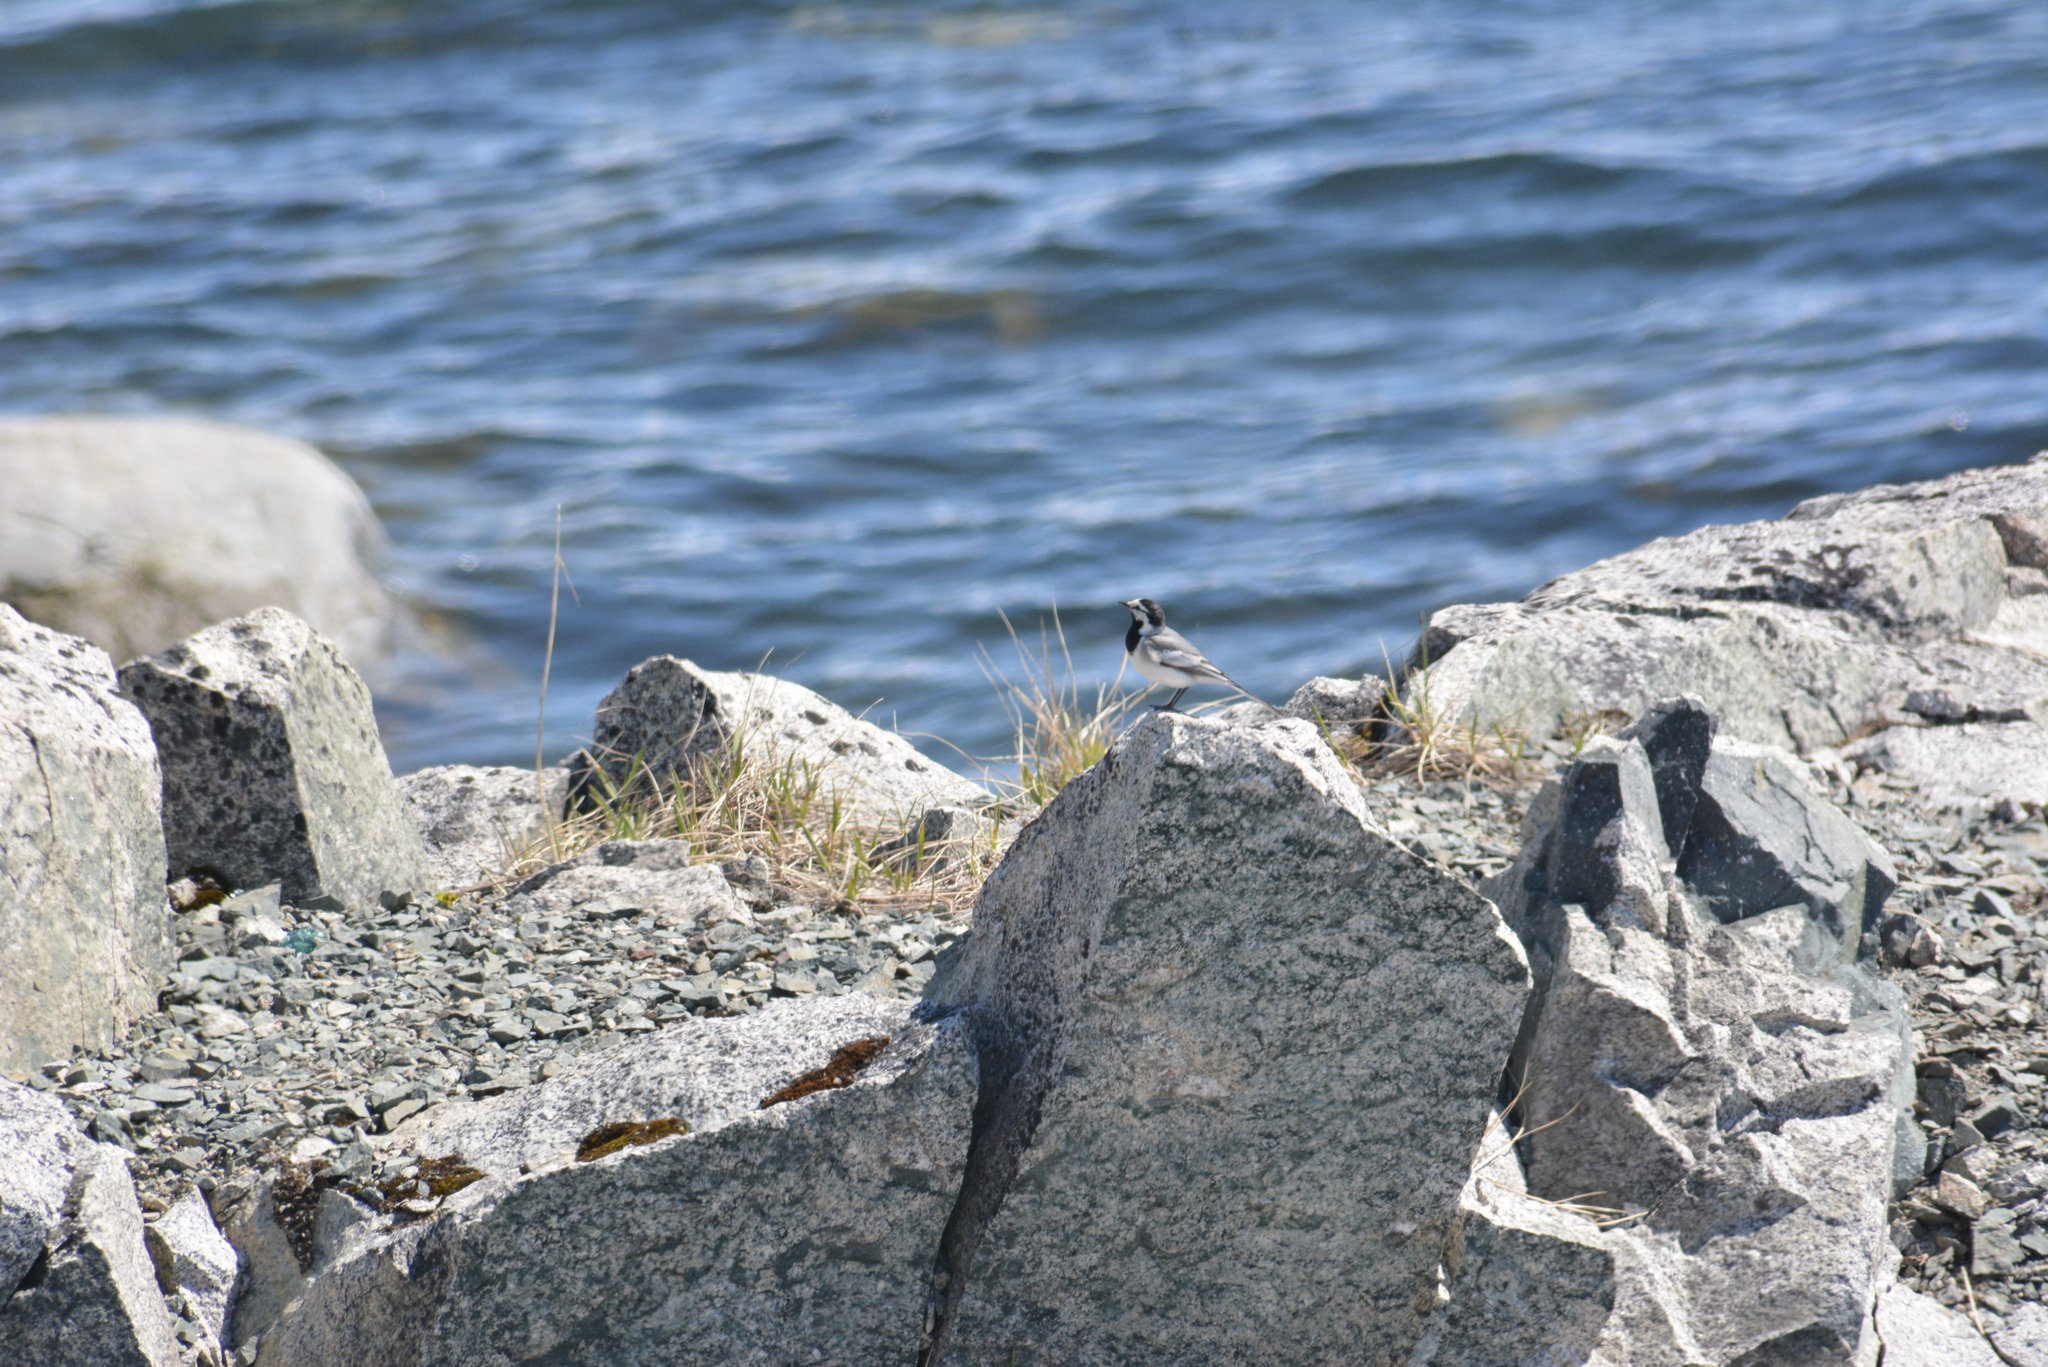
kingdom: Animalia
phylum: Chordata
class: Aves
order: Passeriformes
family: Motacillidae
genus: Motacilla
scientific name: Motacilla alba
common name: White wagtail
